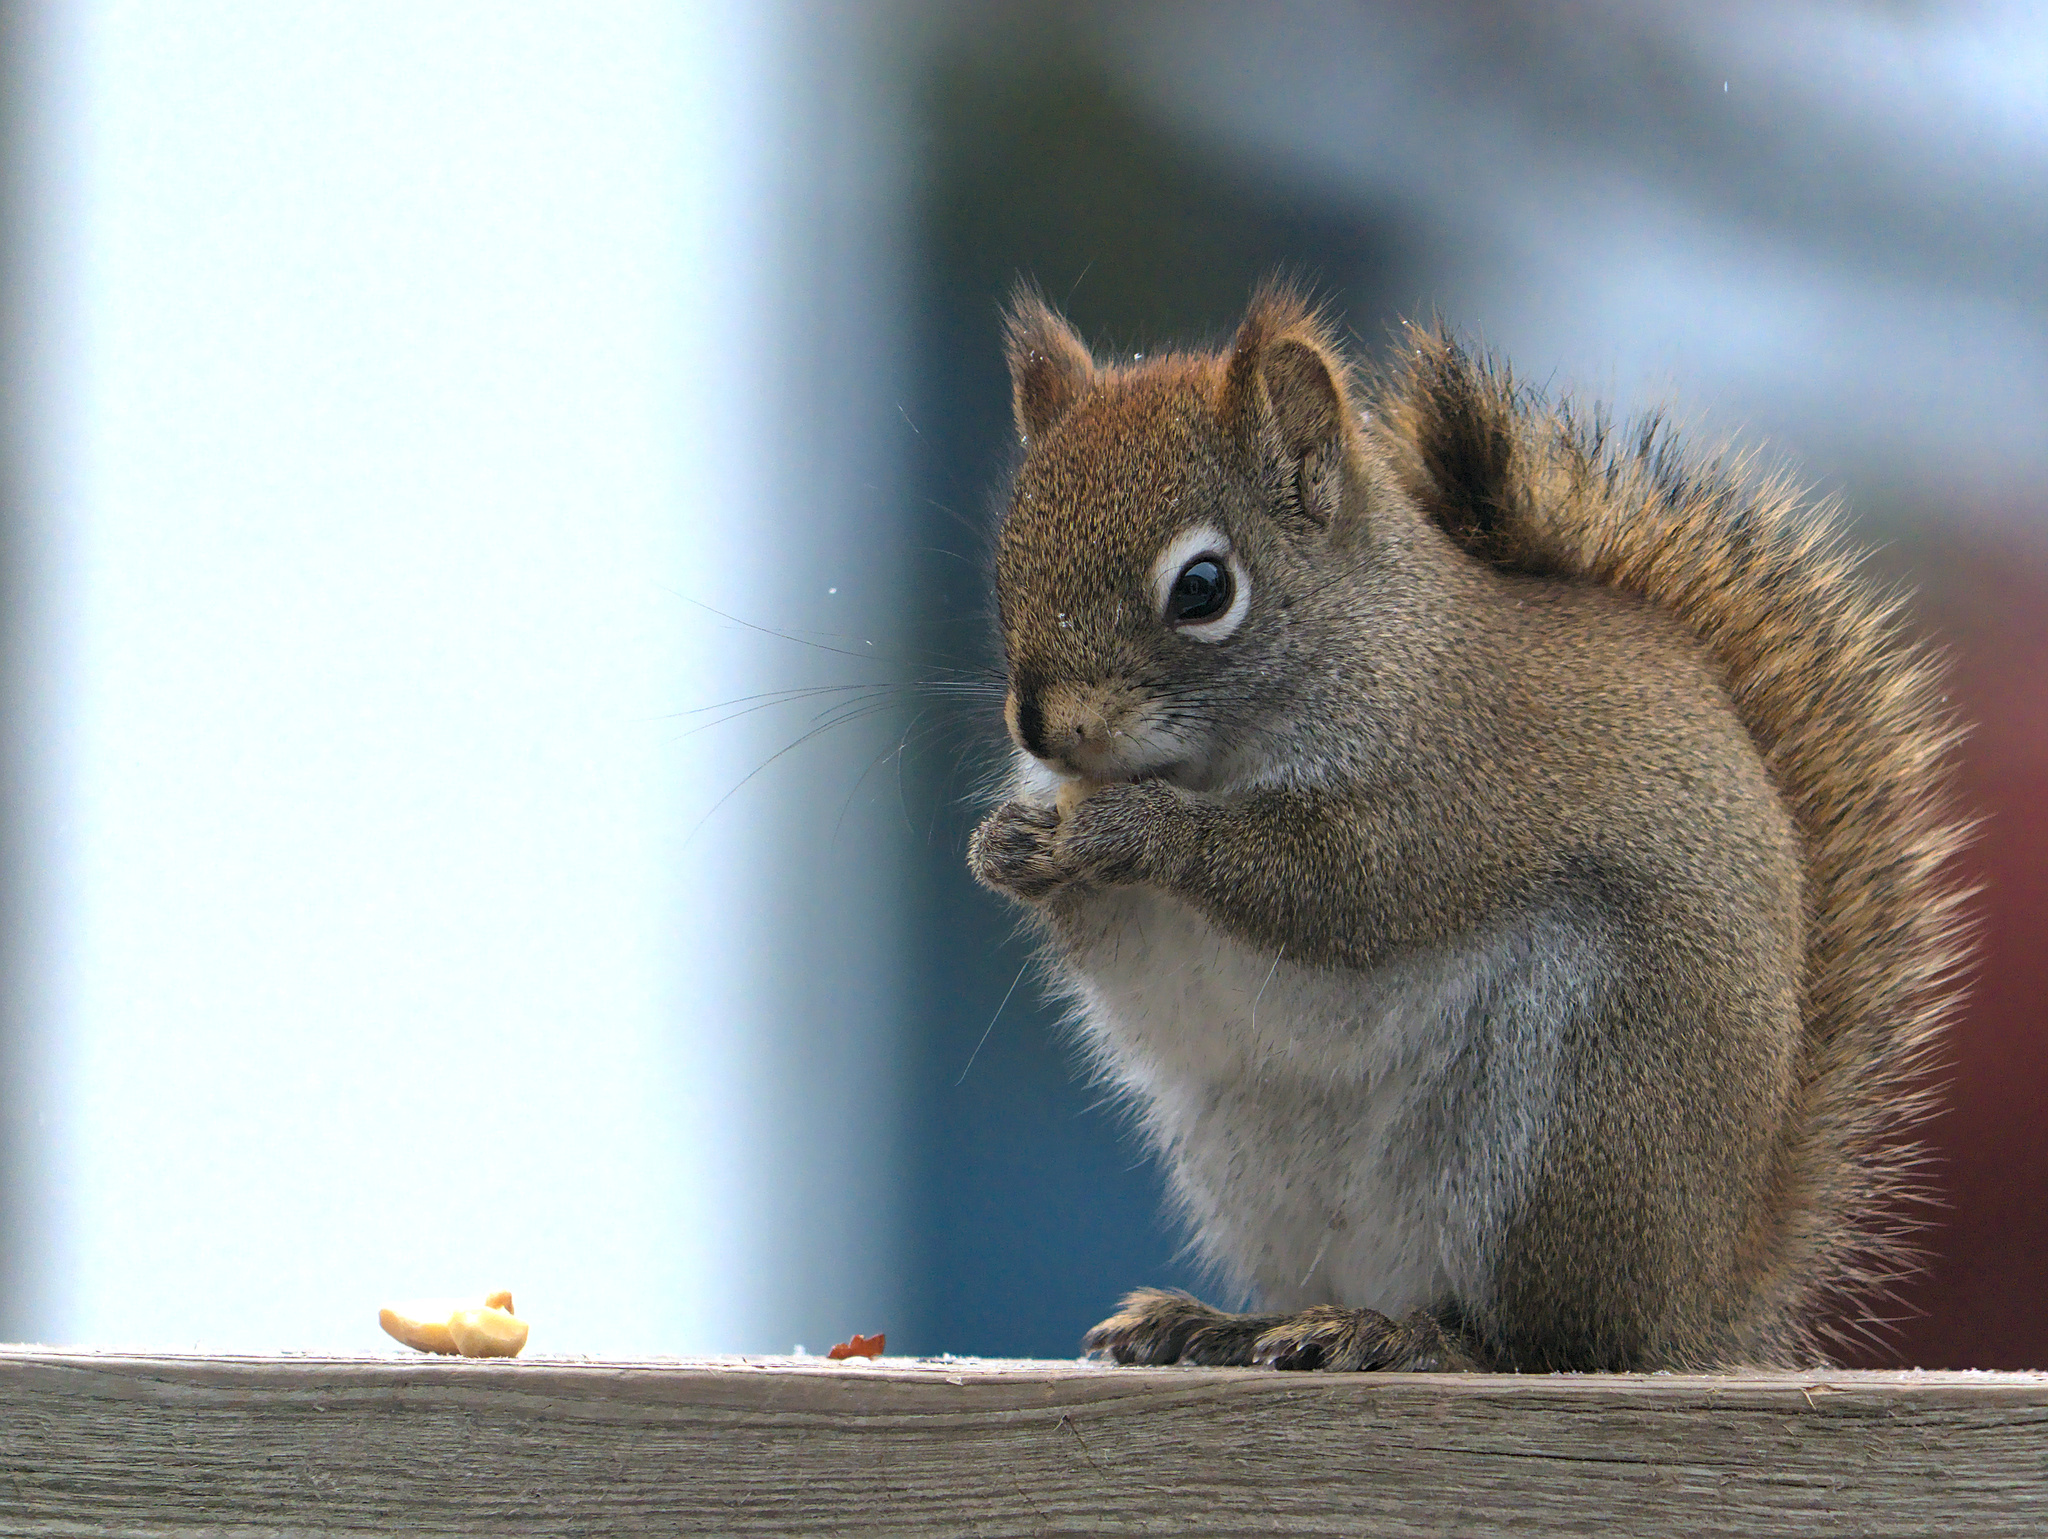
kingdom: Animalia
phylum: Chordata
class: Mammalia
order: Rodentia
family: Sciuridae
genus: Tamiasciurus
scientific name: Tamiasciurus hudsonicus
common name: Red squirrel
